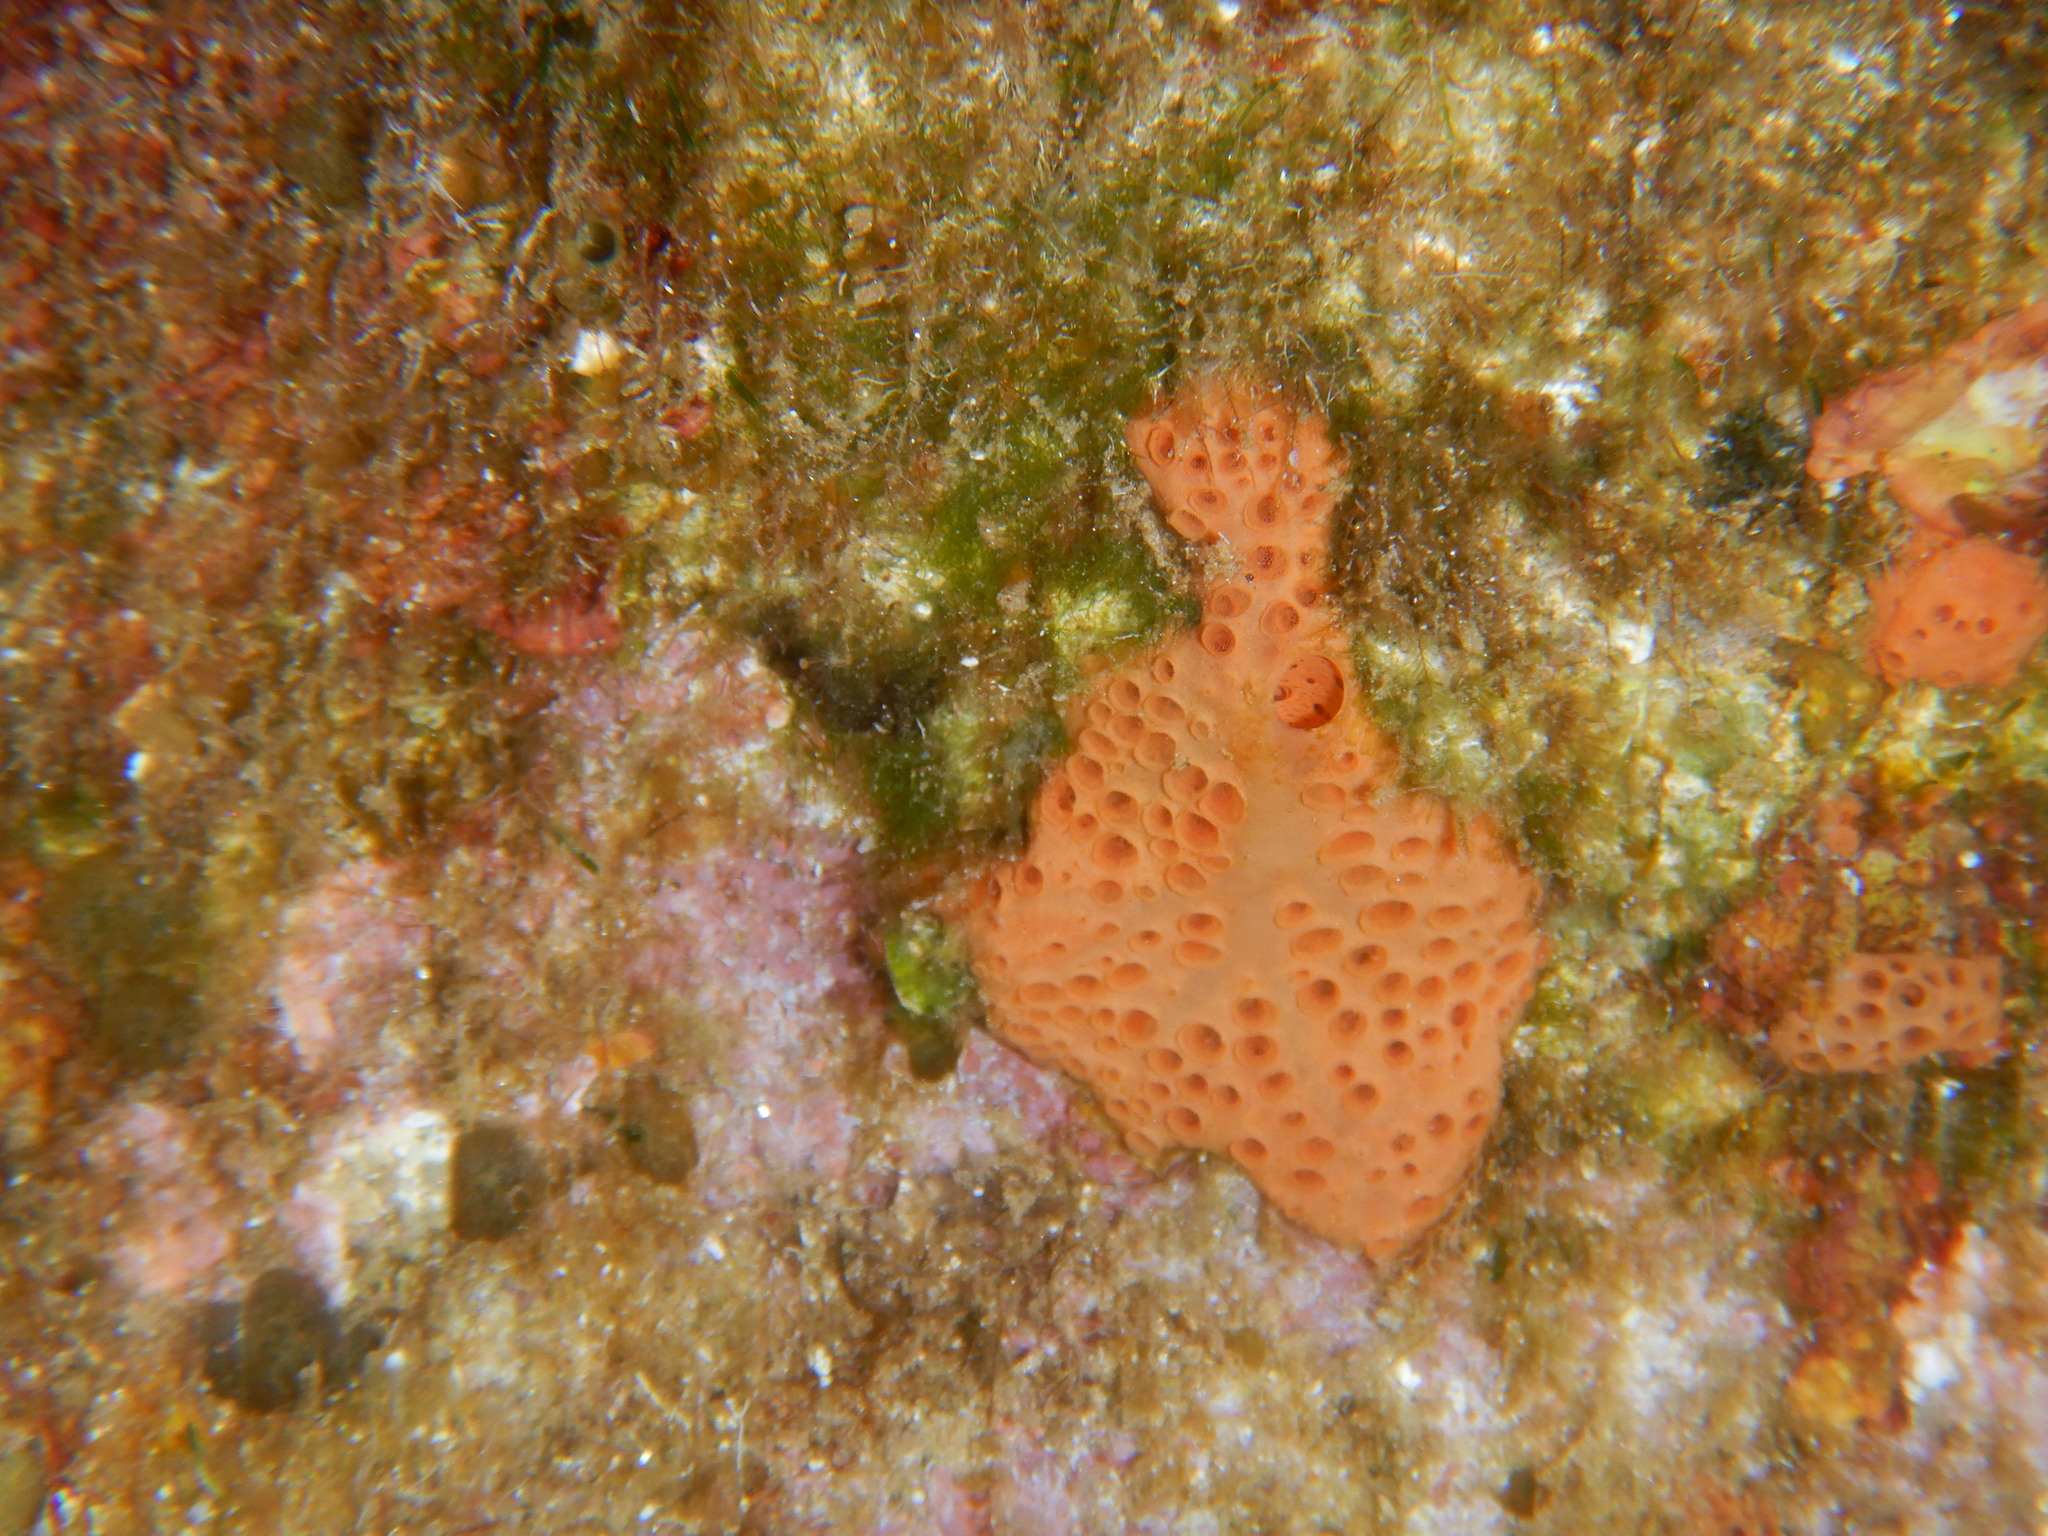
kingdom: Animalia
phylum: Porifera
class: Demospongiae
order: Poecilosclerida
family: Hymedesmiidae
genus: Hemimycale
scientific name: Hemimycale columella
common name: Crater sponge
